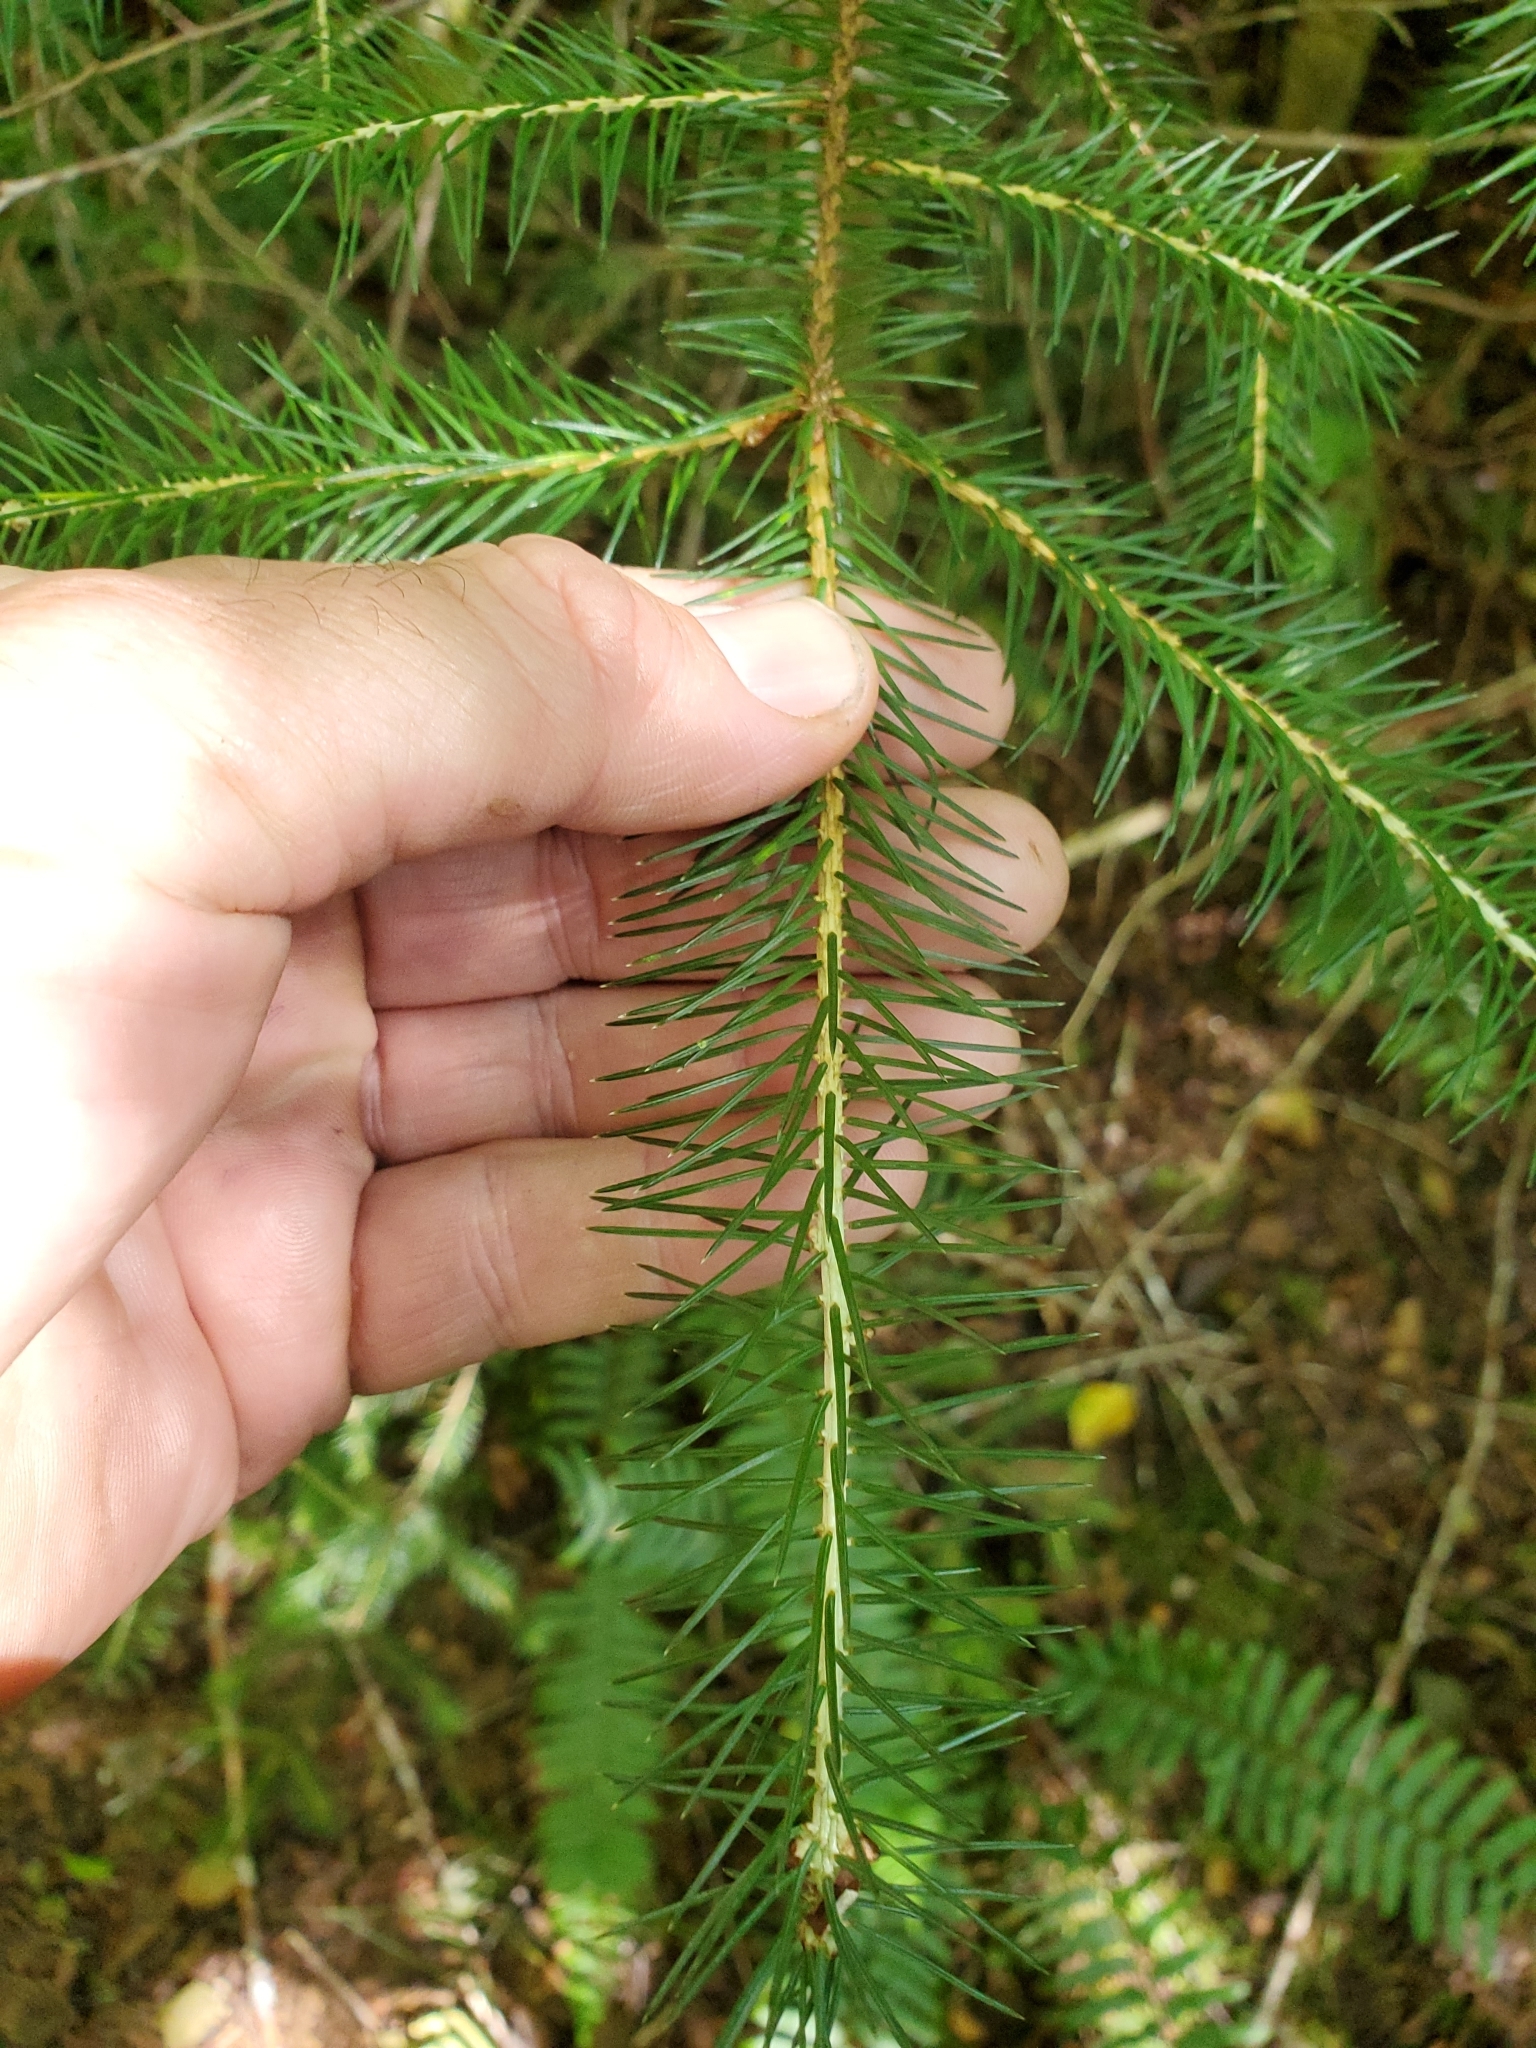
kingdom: Plantae
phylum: Tracheophyta
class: Pinopsida
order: Pinales
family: Pinaceae
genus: Picea
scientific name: Picea sitchensis
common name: Sitka spruce
